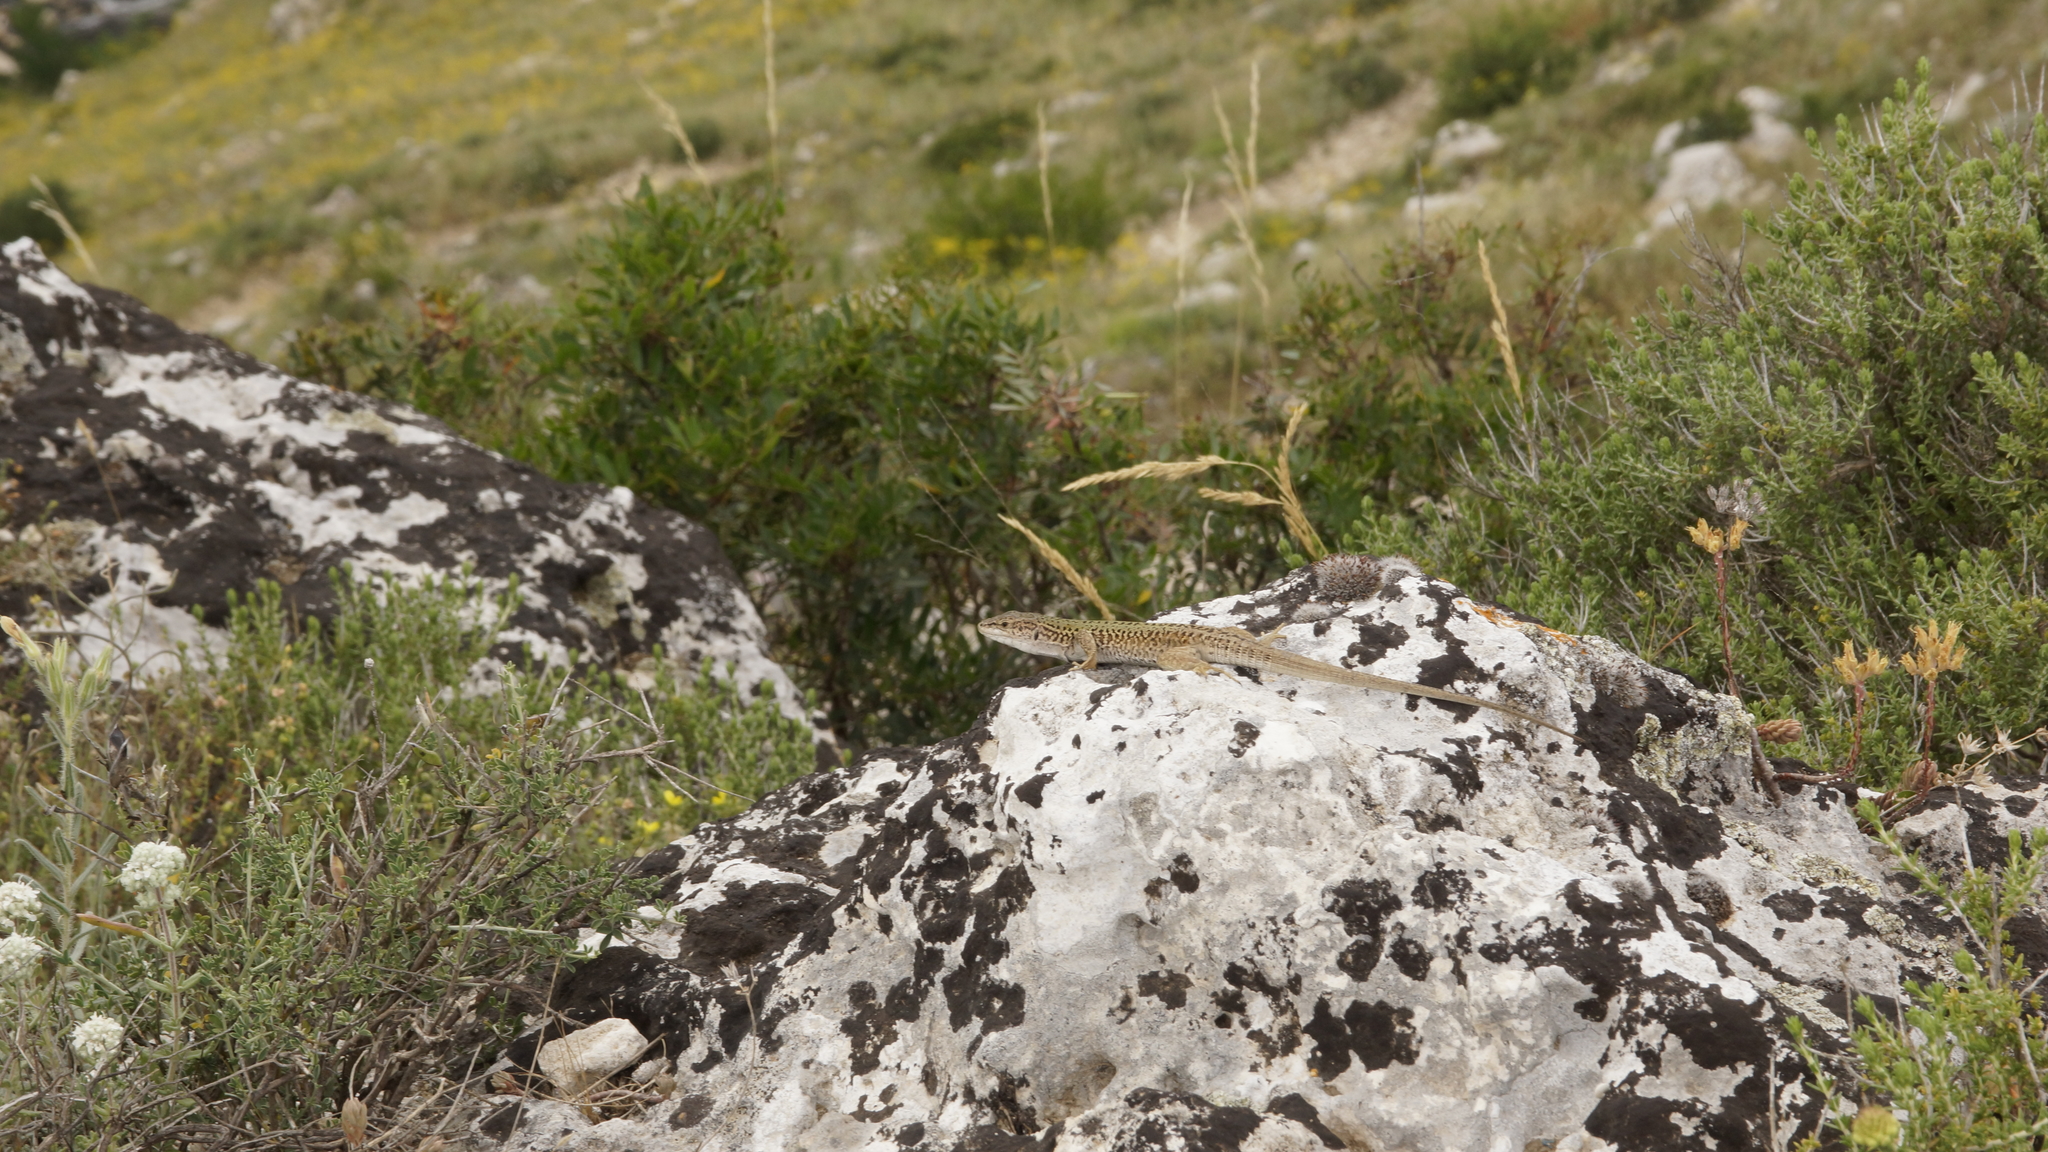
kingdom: Animalia
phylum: Chordata
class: Squamata
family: Lacertidae
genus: Podarcis
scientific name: Podarcis siculus
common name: Italian wall lizard
